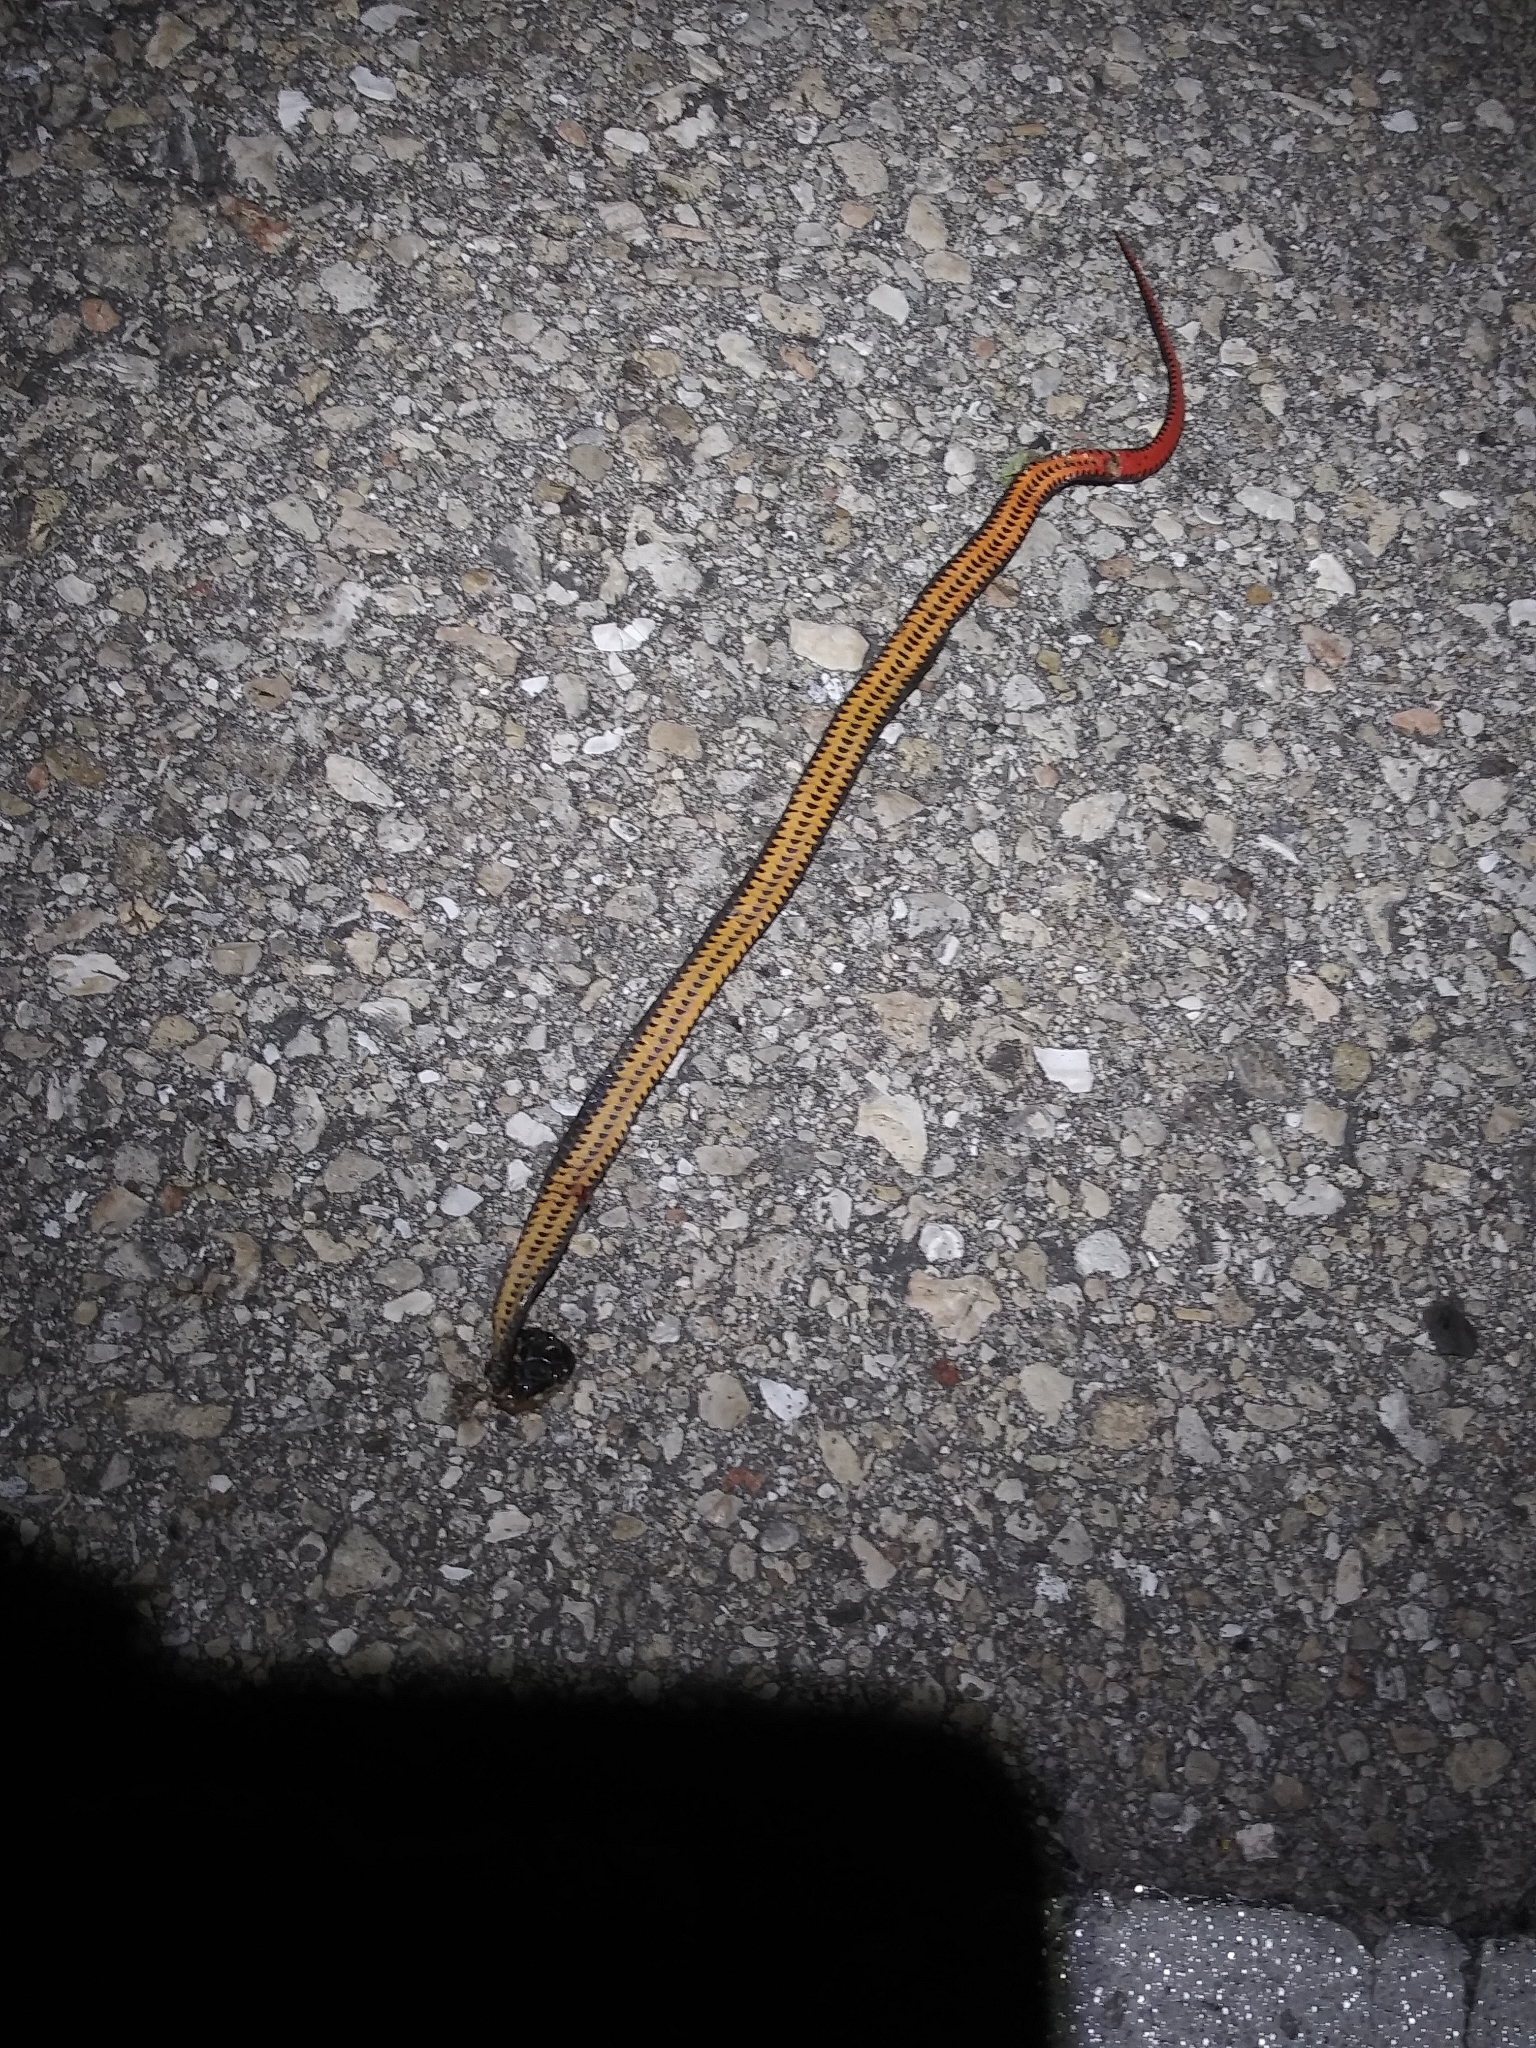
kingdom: Animalia
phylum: Chordata
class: Squamata
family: Colubridae
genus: Diadophis
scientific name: Diadophis punctatus
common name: Ringneck snake
